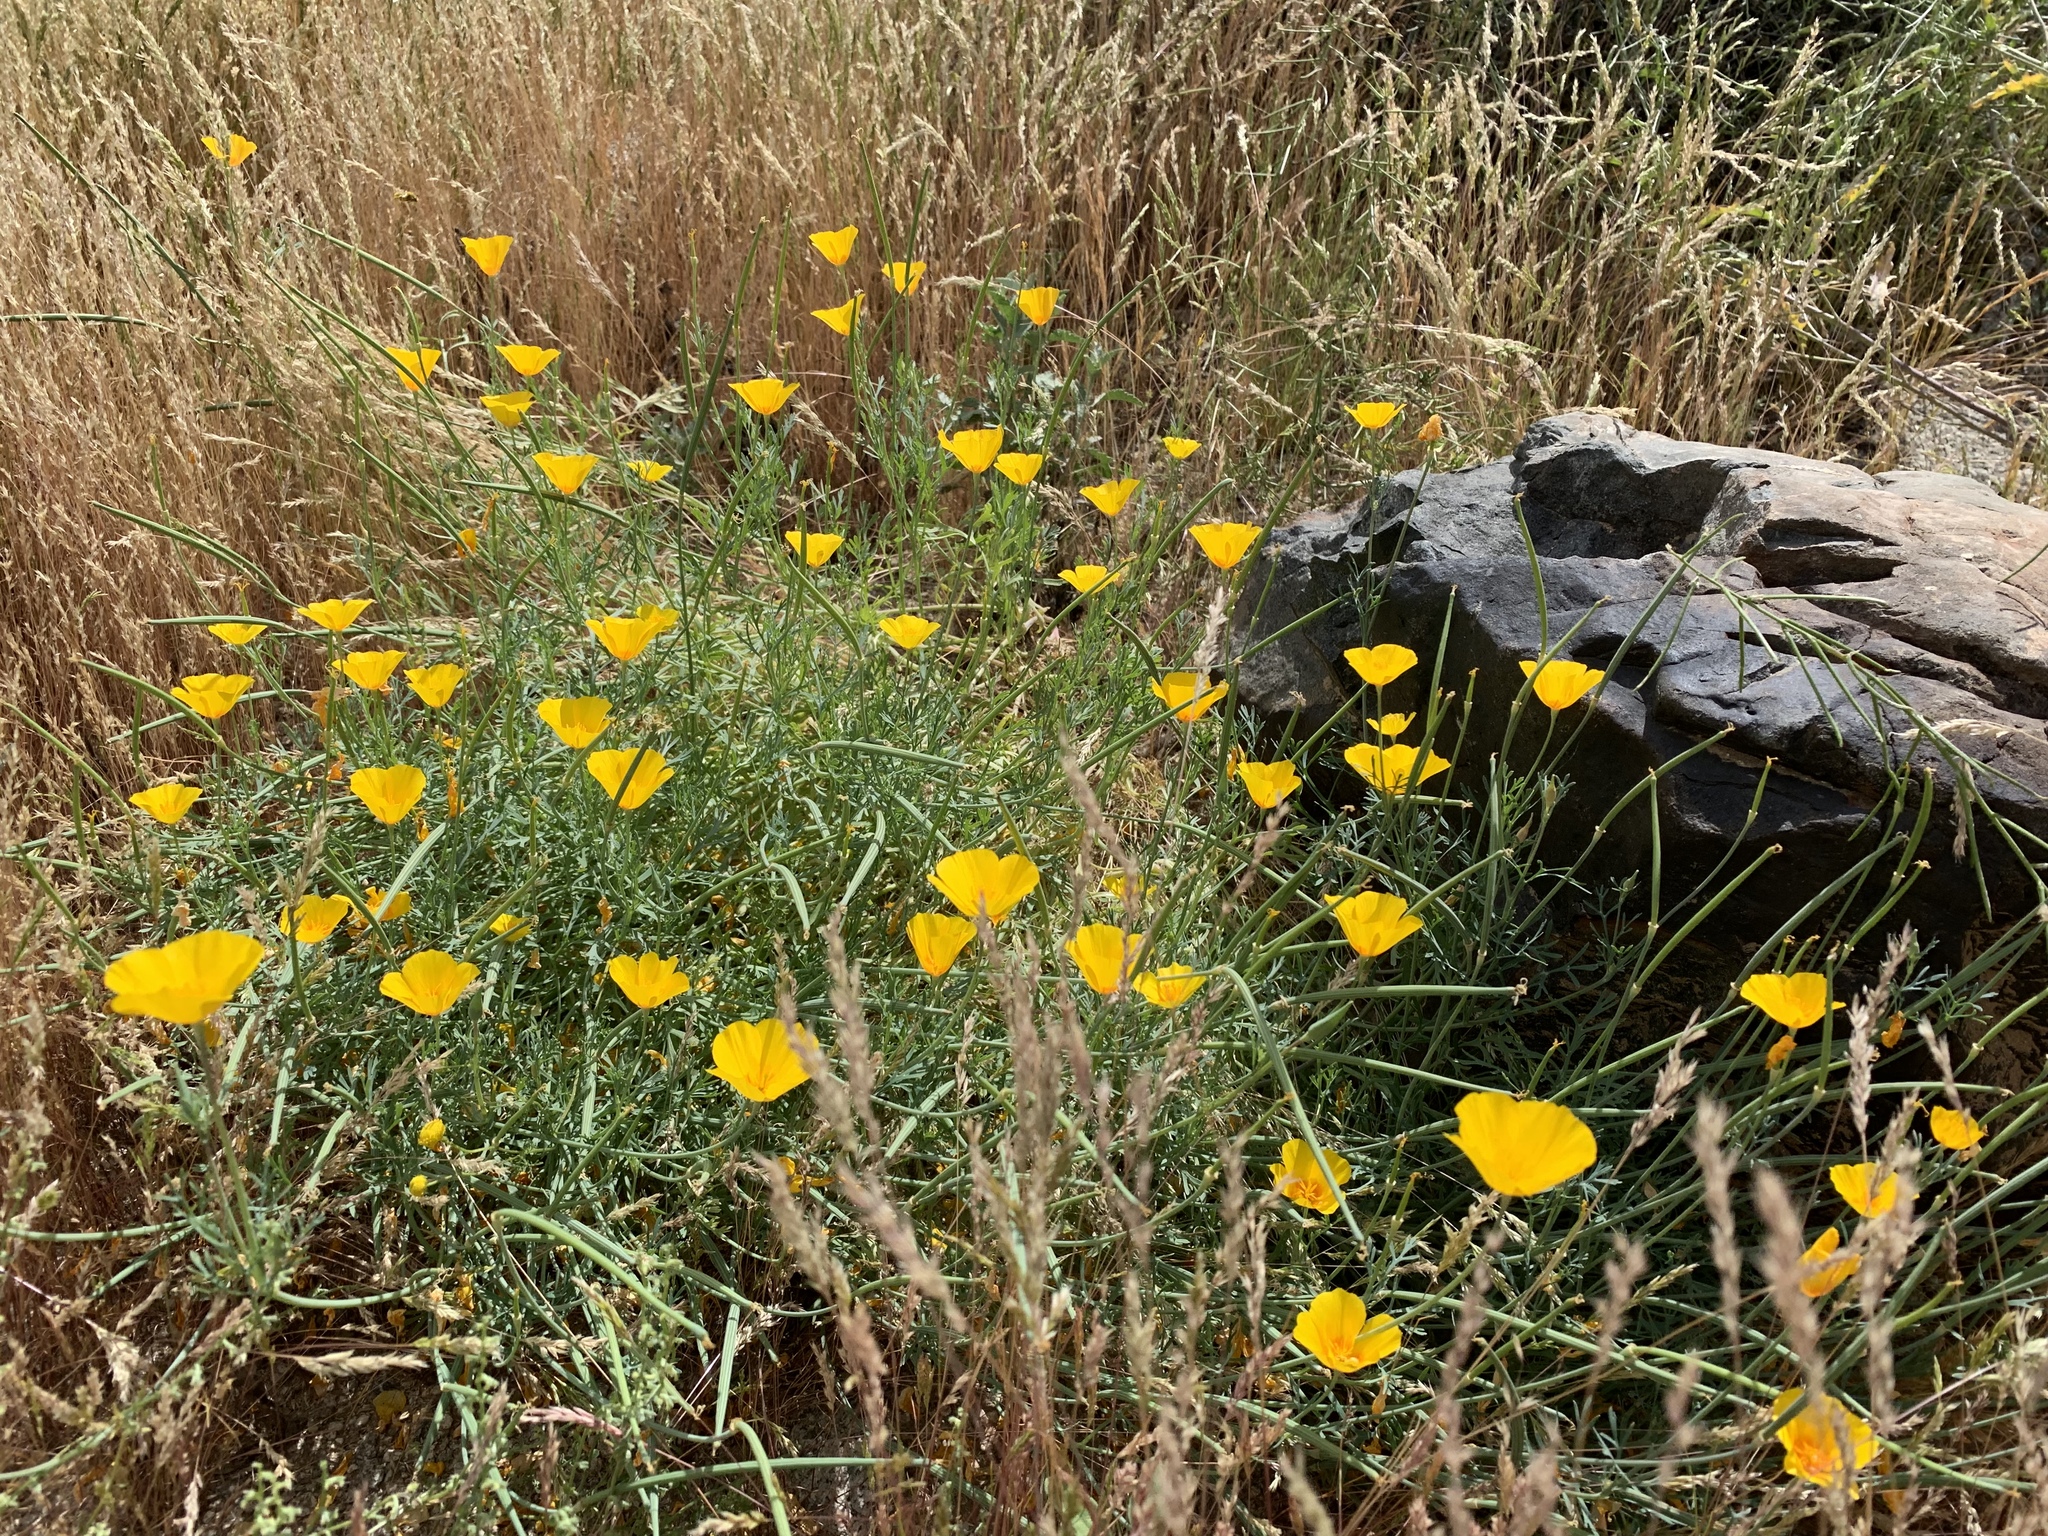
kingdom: Plantae
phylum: Tracheophyta
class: Magnoliopsida
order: Ranunculales
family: Papaveraceae
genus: Eschscholzia
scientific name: Eschscholzia minutiflora
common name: Small-flower california-poppy
